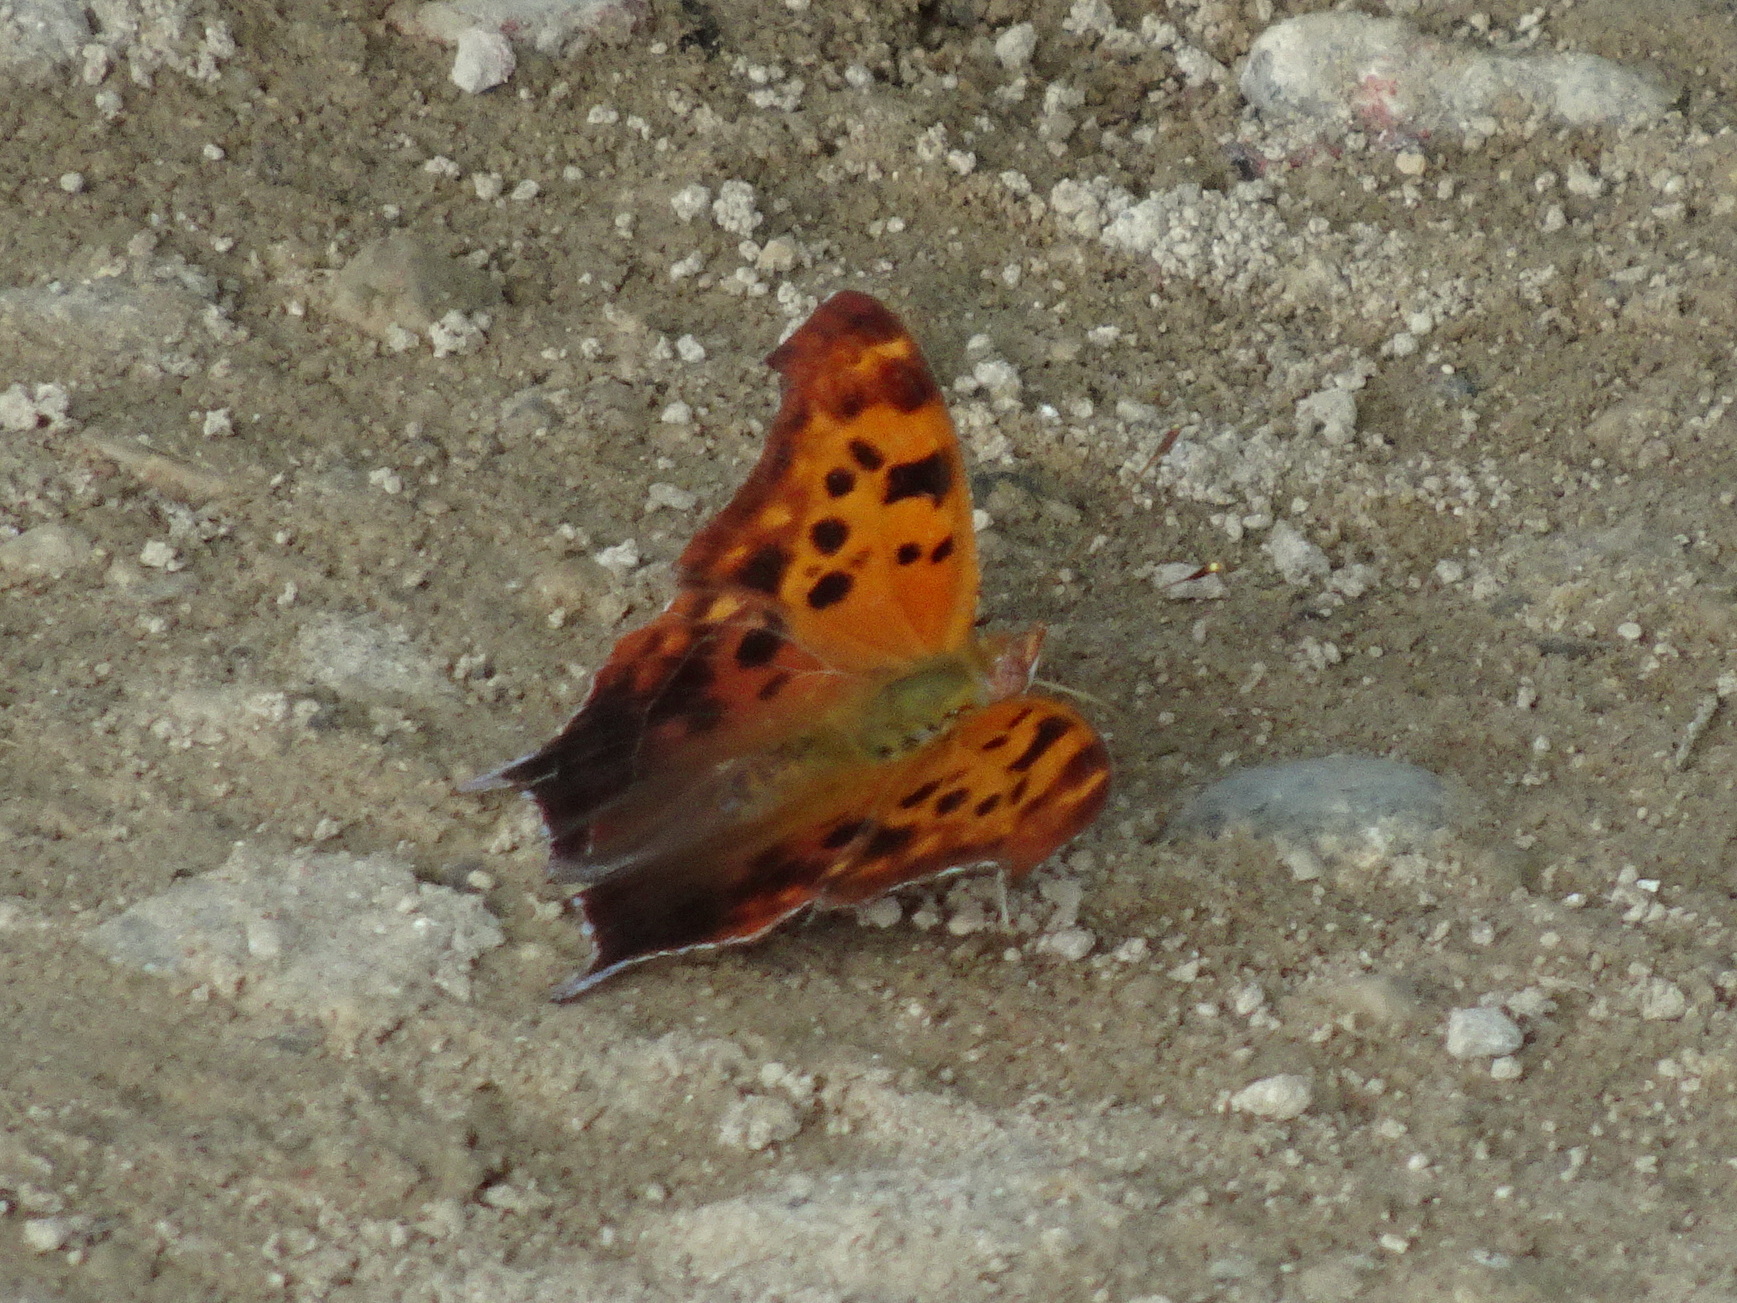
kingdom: Animalia
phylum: Arthropoda
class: Insecta
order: Lepidoptera
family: Nymphalidae
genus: Polygonia
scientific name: Polygonia interrogationis
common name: Question mark
